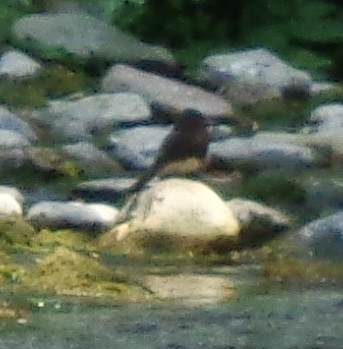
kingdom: Animalia
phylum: Chordata
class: Aves
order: Passeriformes
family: Tyrannidae
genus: Sayornis
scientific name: Sayornis nigricans
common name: Black phoebe
